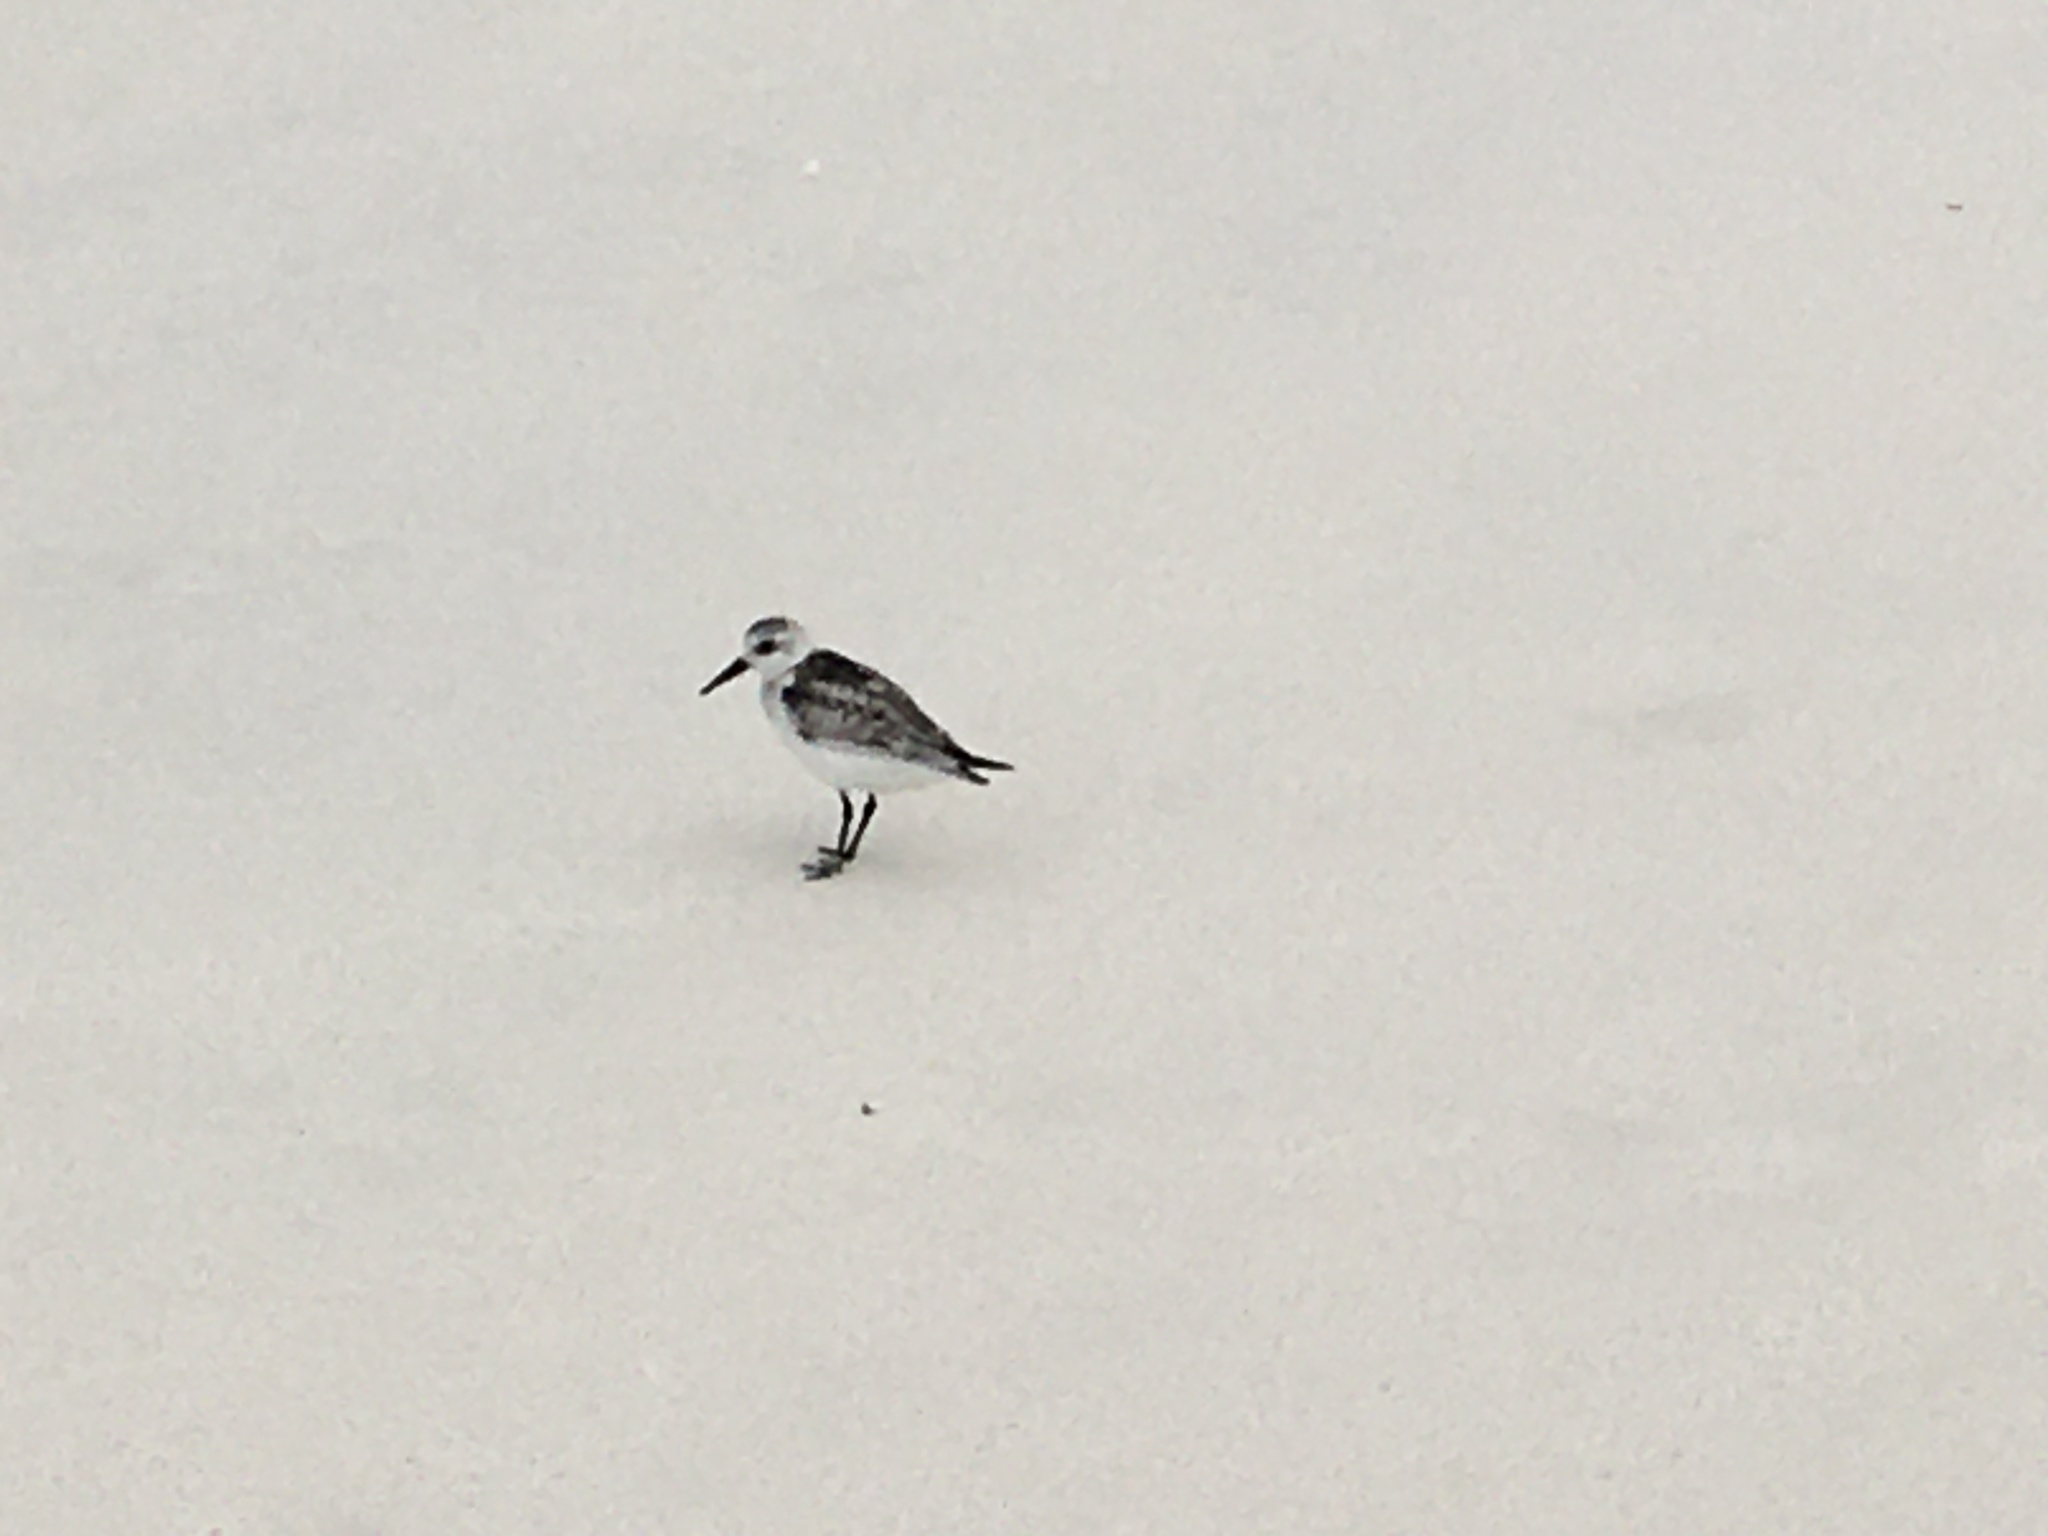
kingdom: Animalia
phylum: Chordata
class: Aves
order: Charadriiformes
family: Scolopacidae
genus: Calidris
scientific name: Calidris alba
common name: Sanderling
